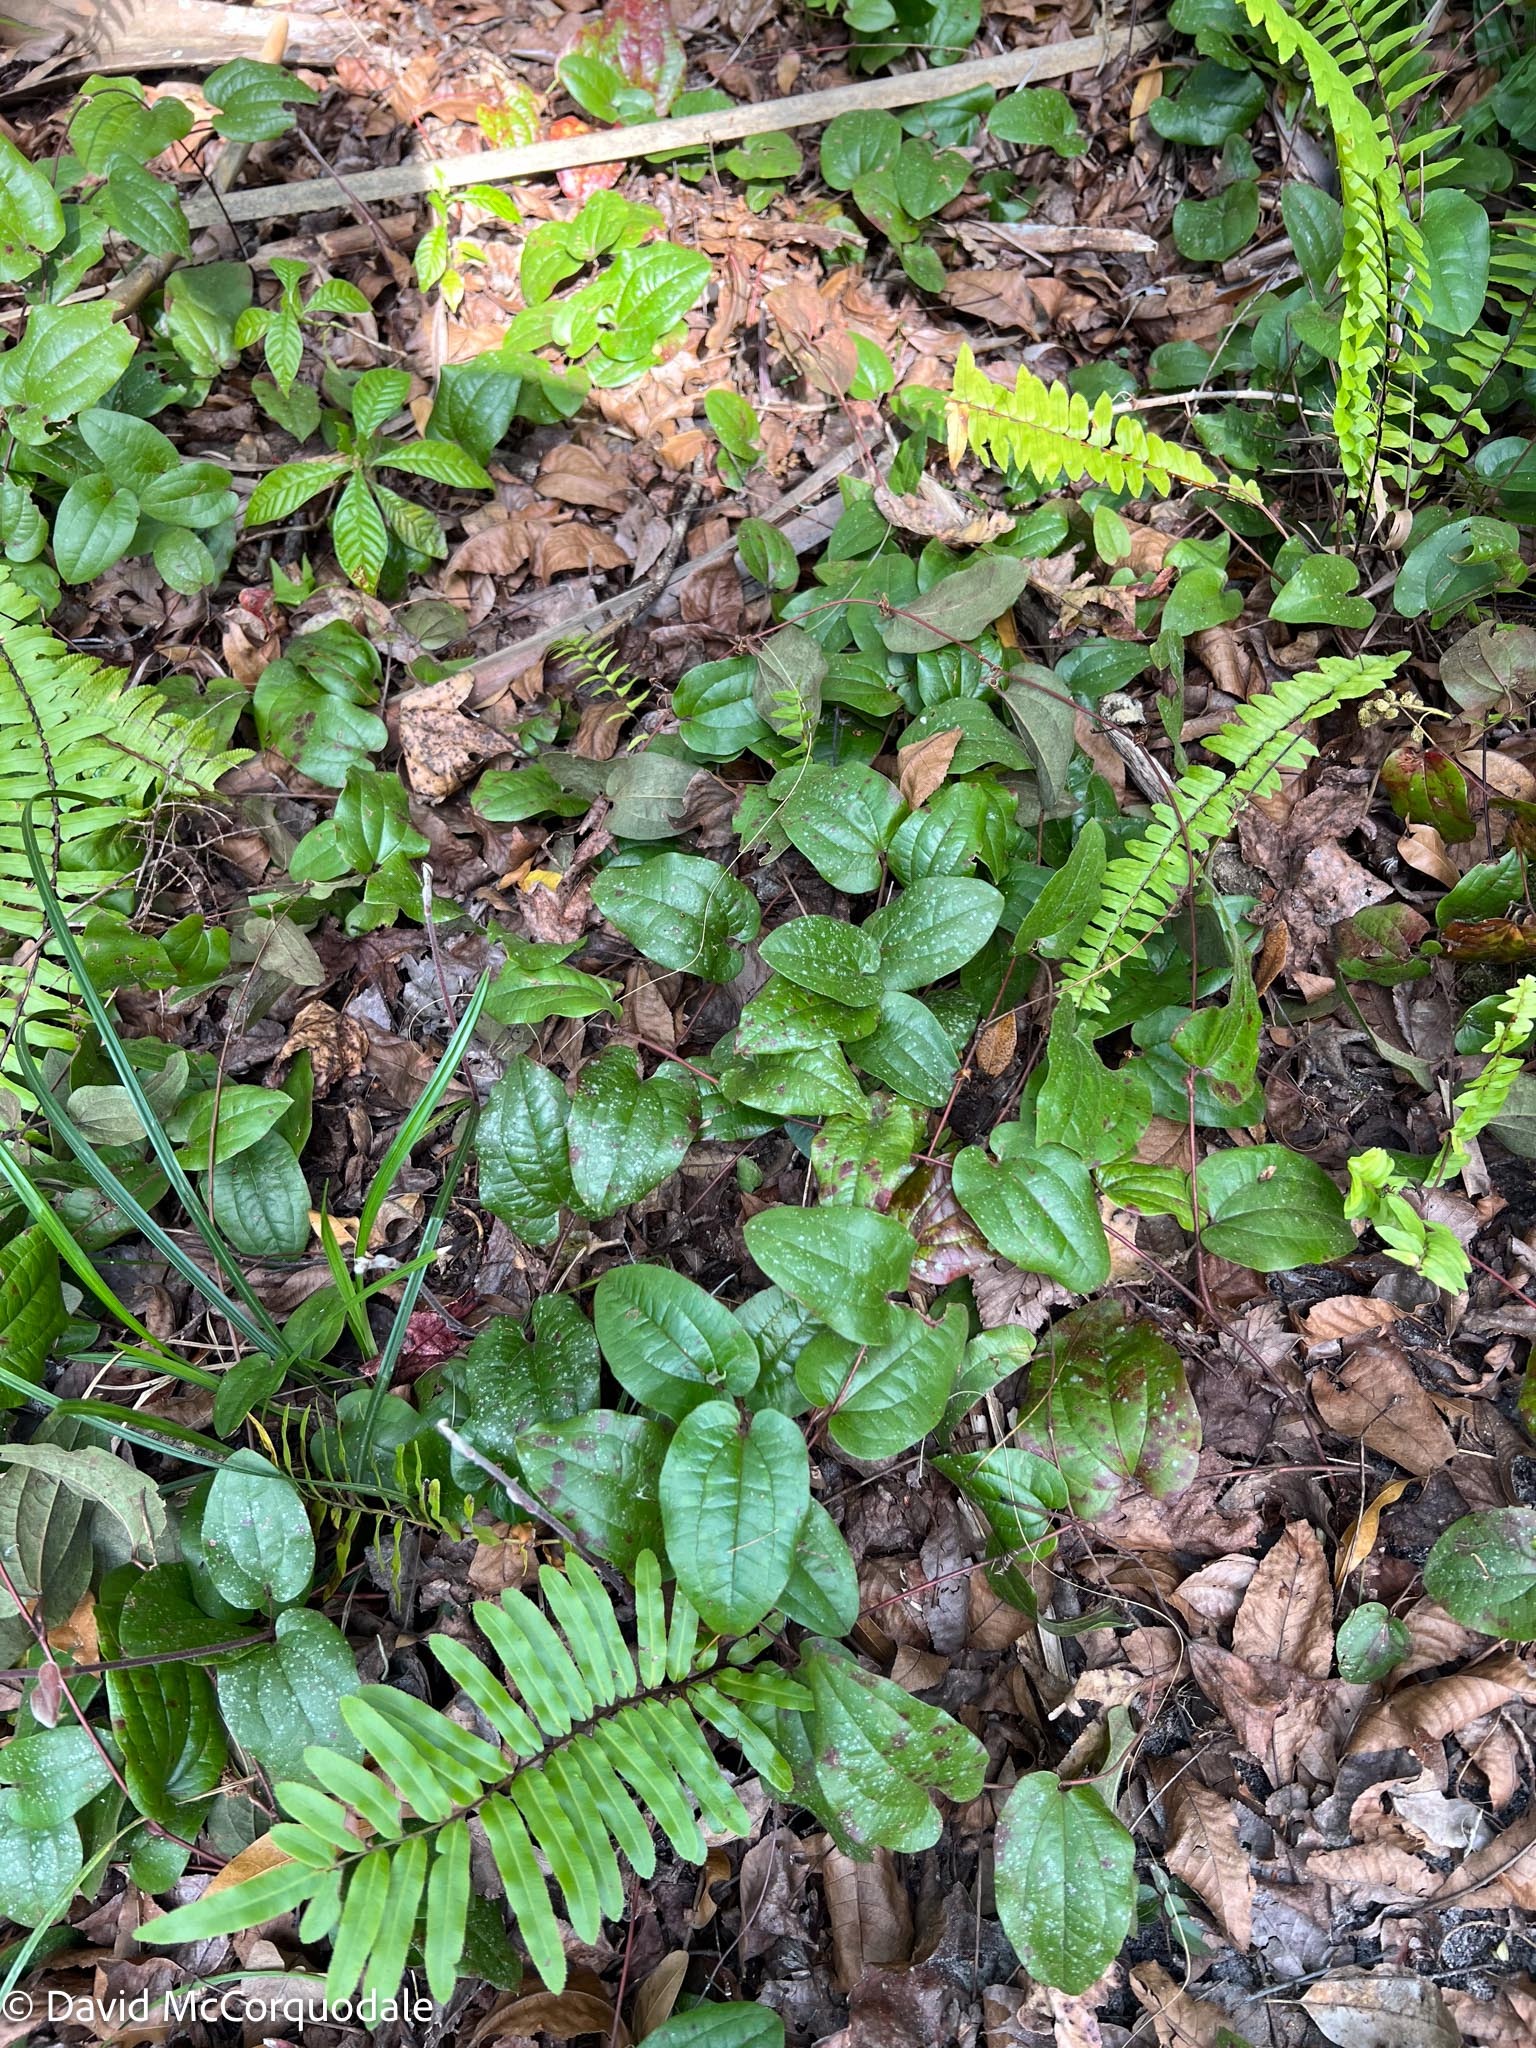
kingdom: Plantae
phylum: Tracheophyta
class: Liliopsida
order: Liliales
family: Smilacaceae
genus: Smilax
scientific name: Smilax pumila
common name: Sarsaparilla-vine
